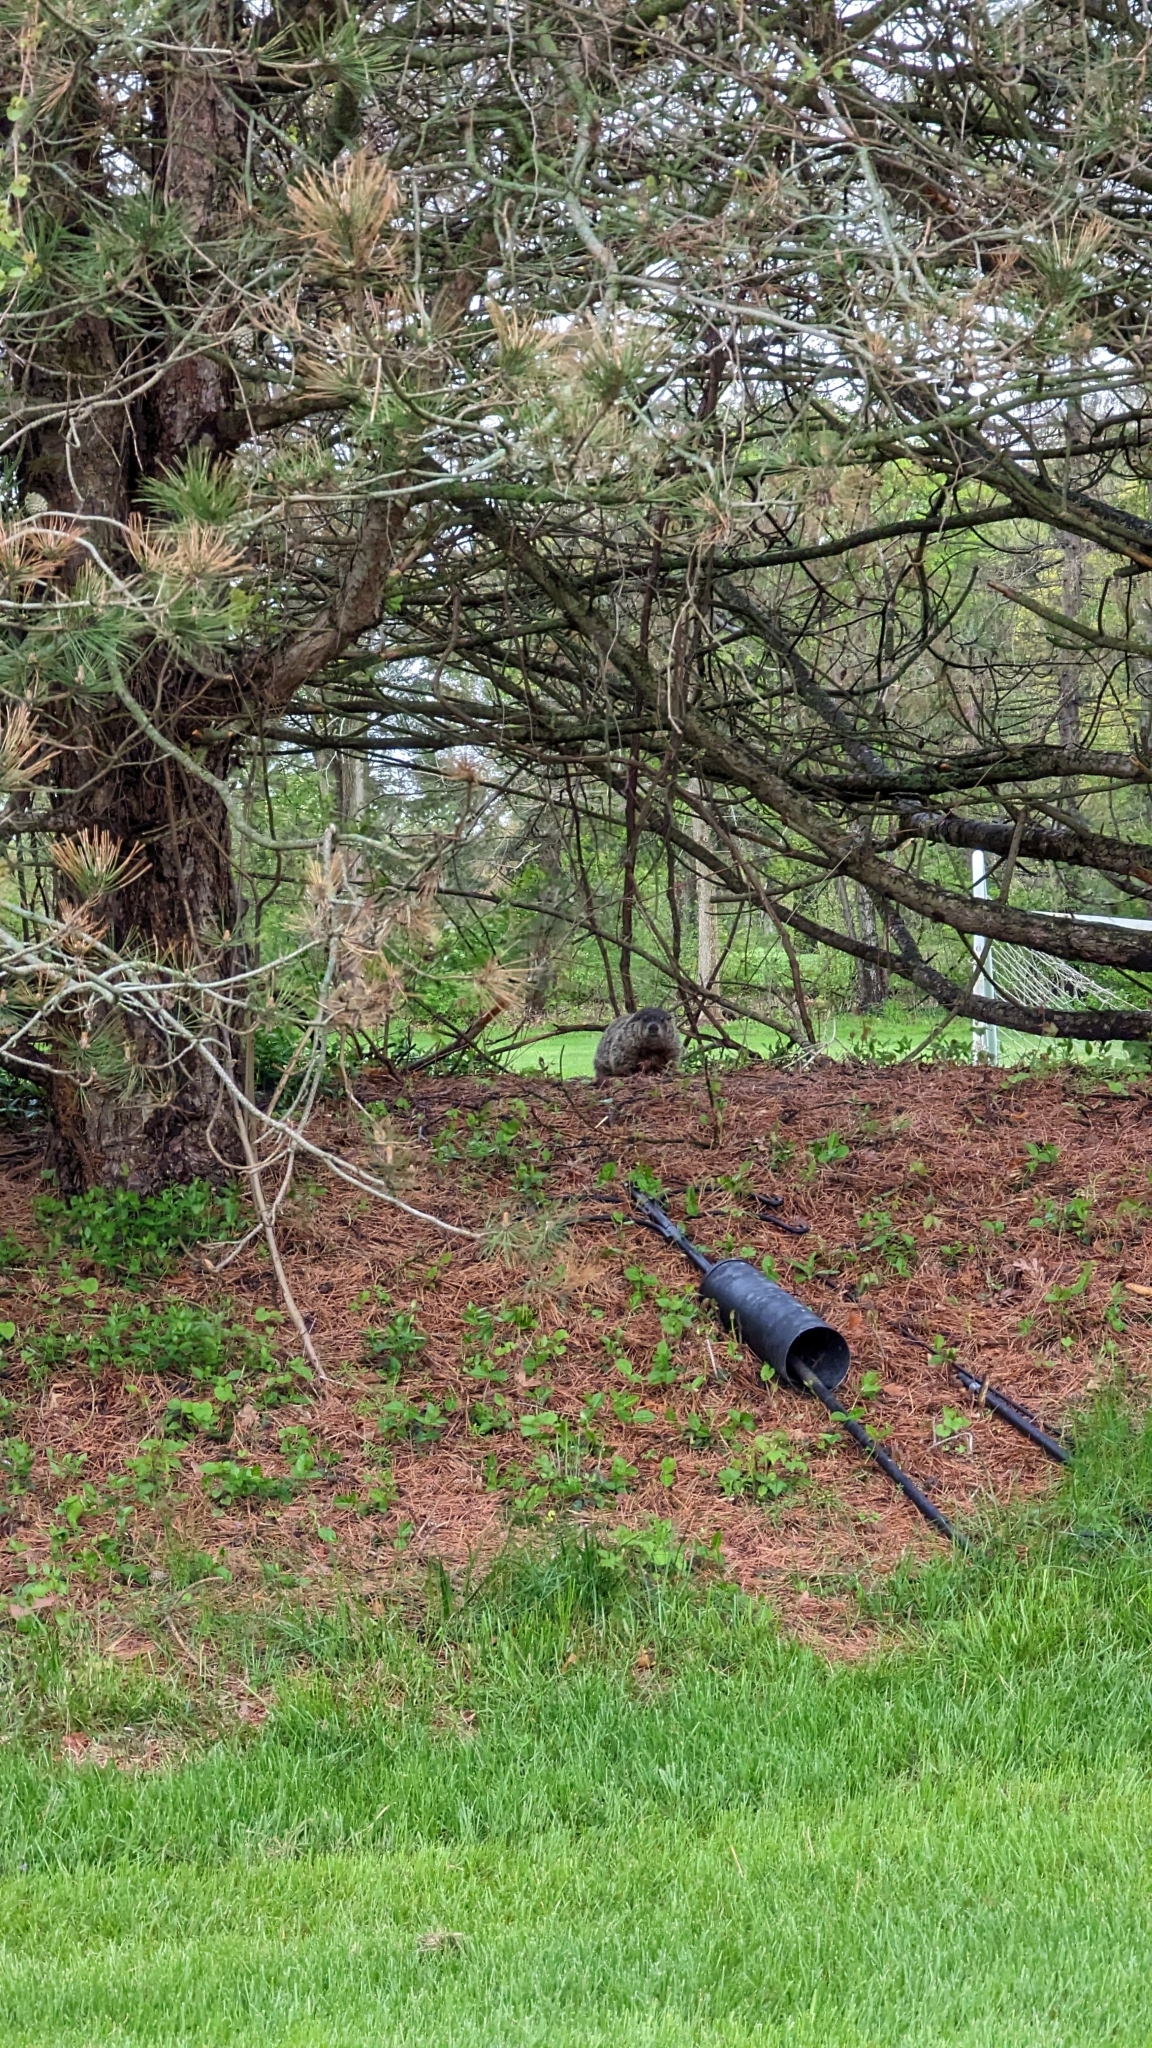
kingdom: Animalia
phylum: Chordata
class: Mammalia
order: Rodentia
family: Sciuridae
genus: Marmota
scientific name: Marmota monax
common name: Groundhog
